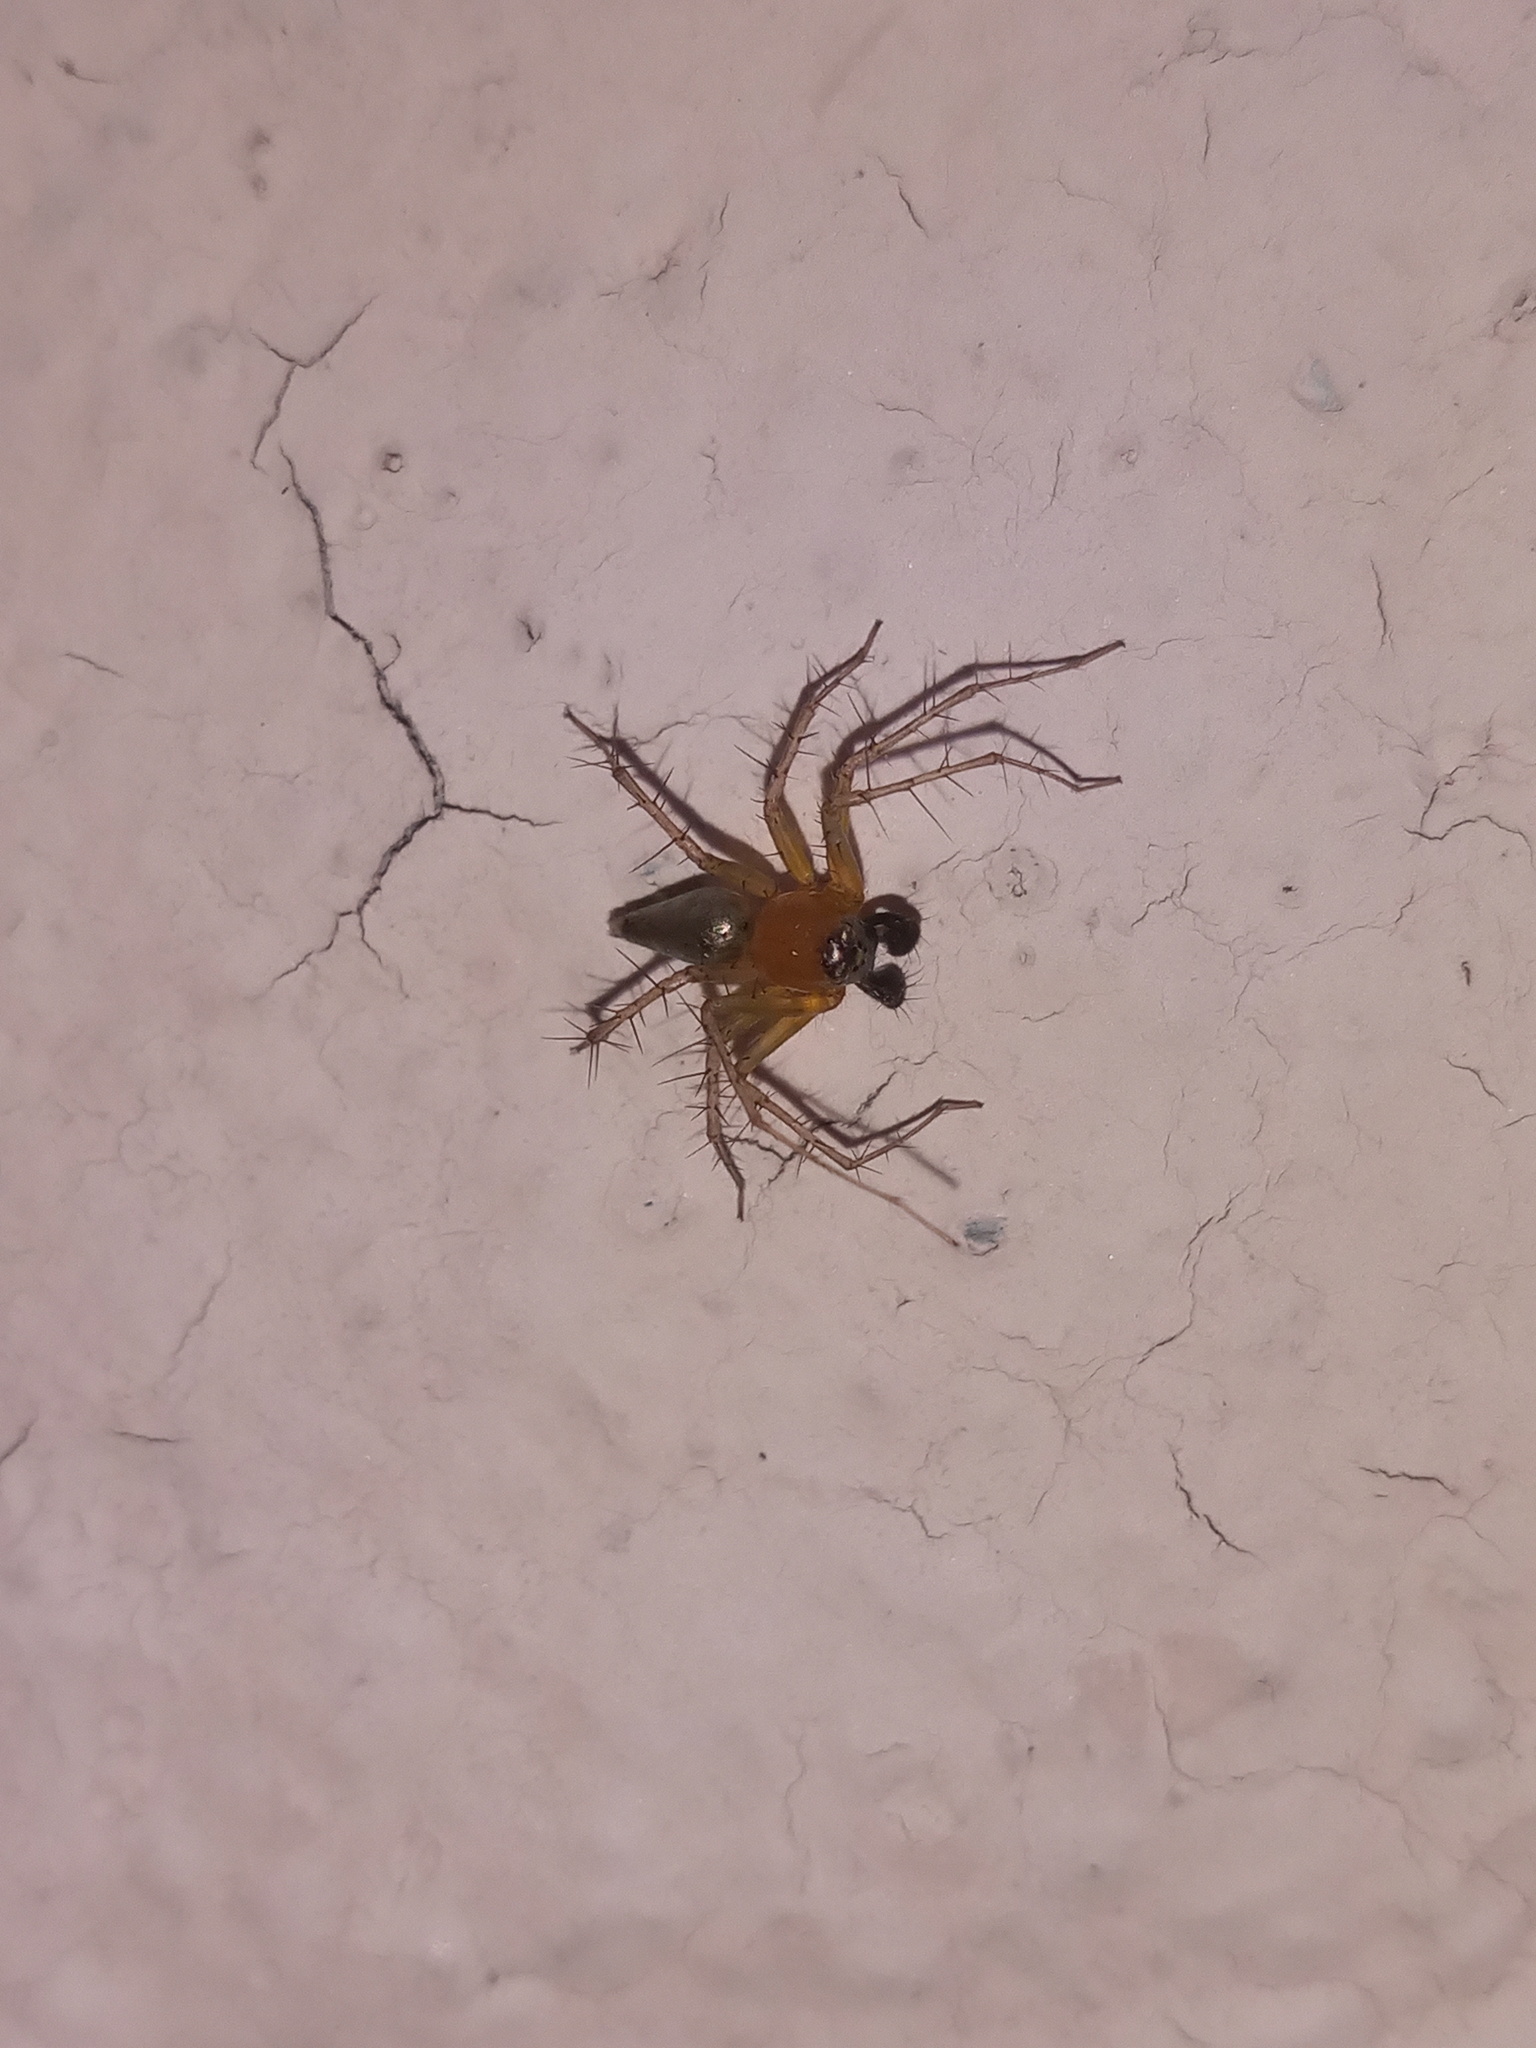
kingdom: Animalia
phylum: Arthropoda
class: Arachnida
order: Araneae
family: Oxyopidae
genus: Oxyopes
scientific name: Oxyopes salticus
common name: Lynx spiders
